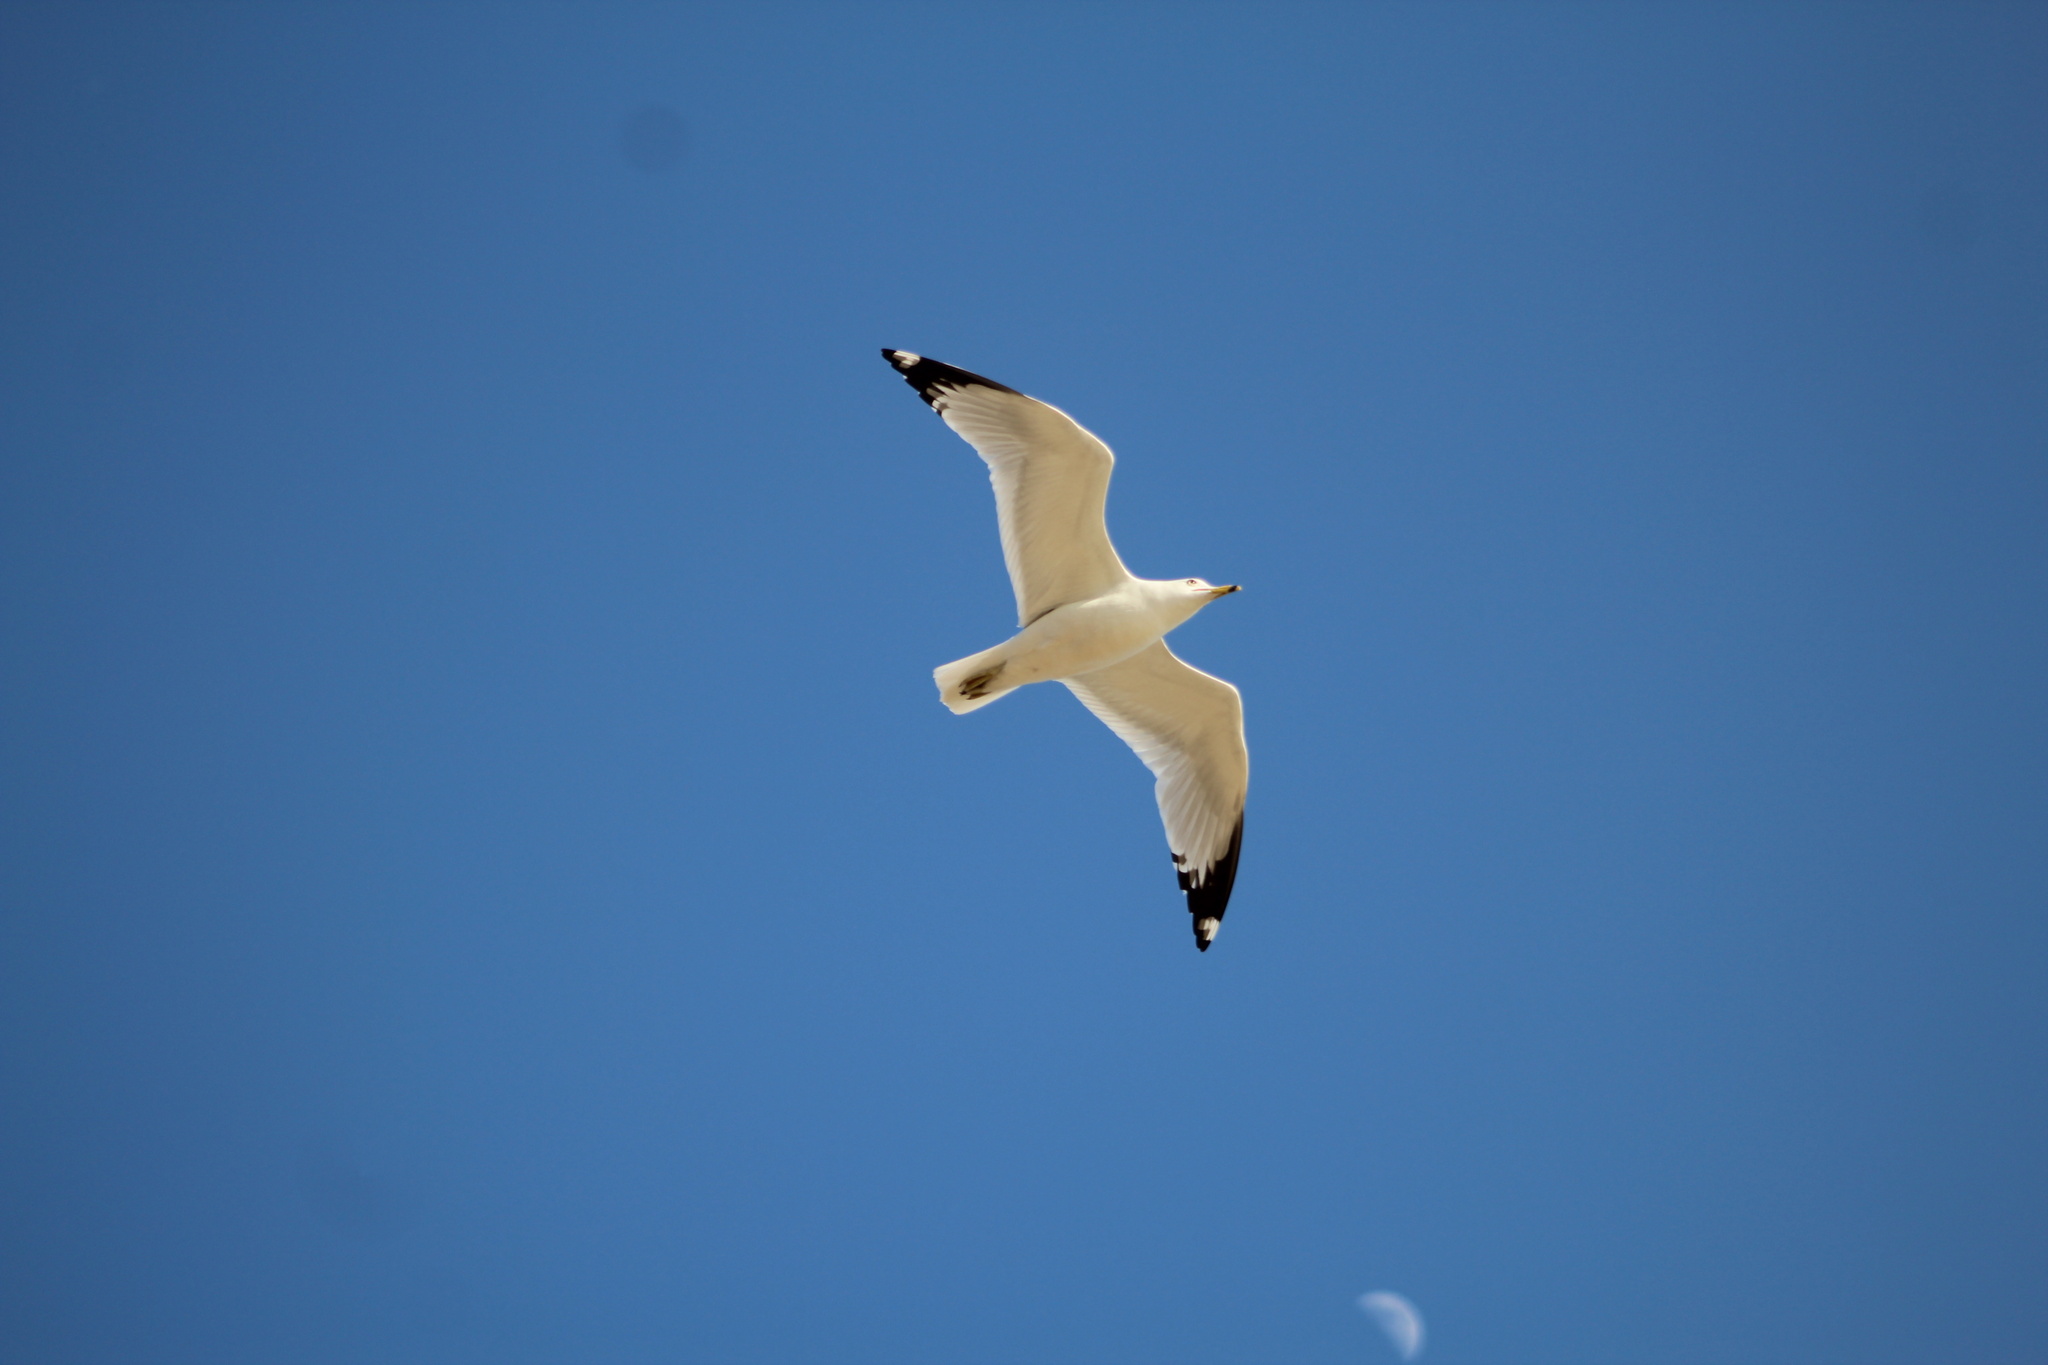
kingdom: Animalia
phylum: Chordata
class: Aves
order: Charadriiformes
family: Laridae
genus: Larus
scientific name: Larus delawarensis
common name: Ring-billed gull
